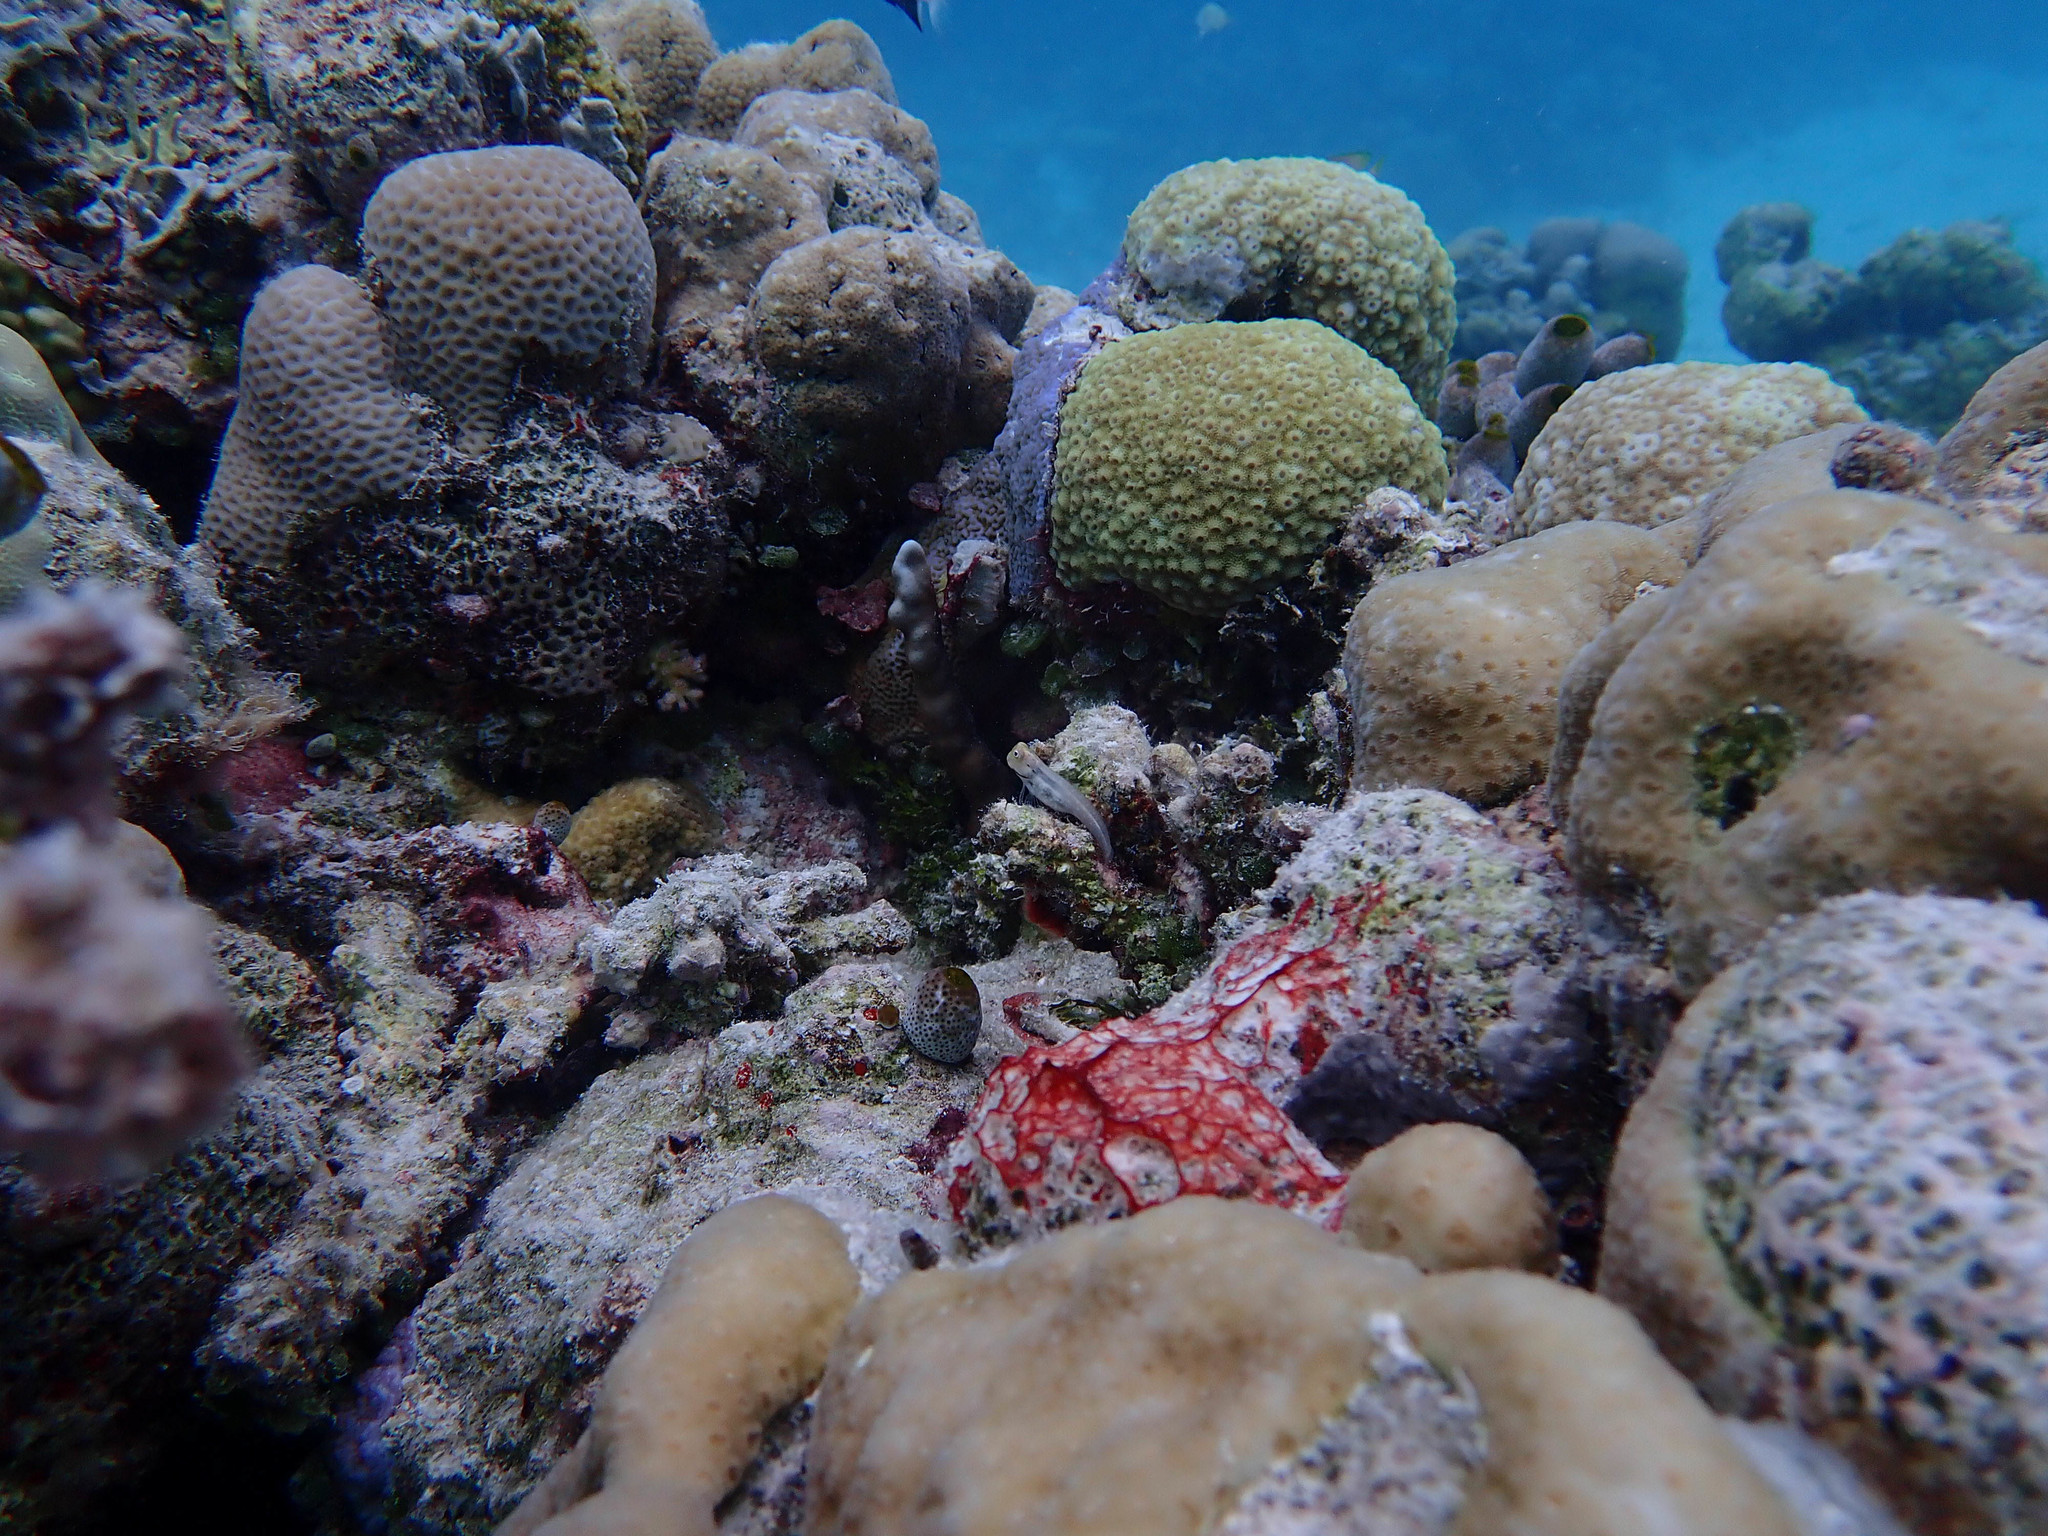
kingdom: Animalia
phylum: Chordata
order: Perciformes
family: Blenniidae
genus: Ecsenius
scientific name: Ecsenius yaeyamaensis
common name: Pale-spotted combtooth-blenny
